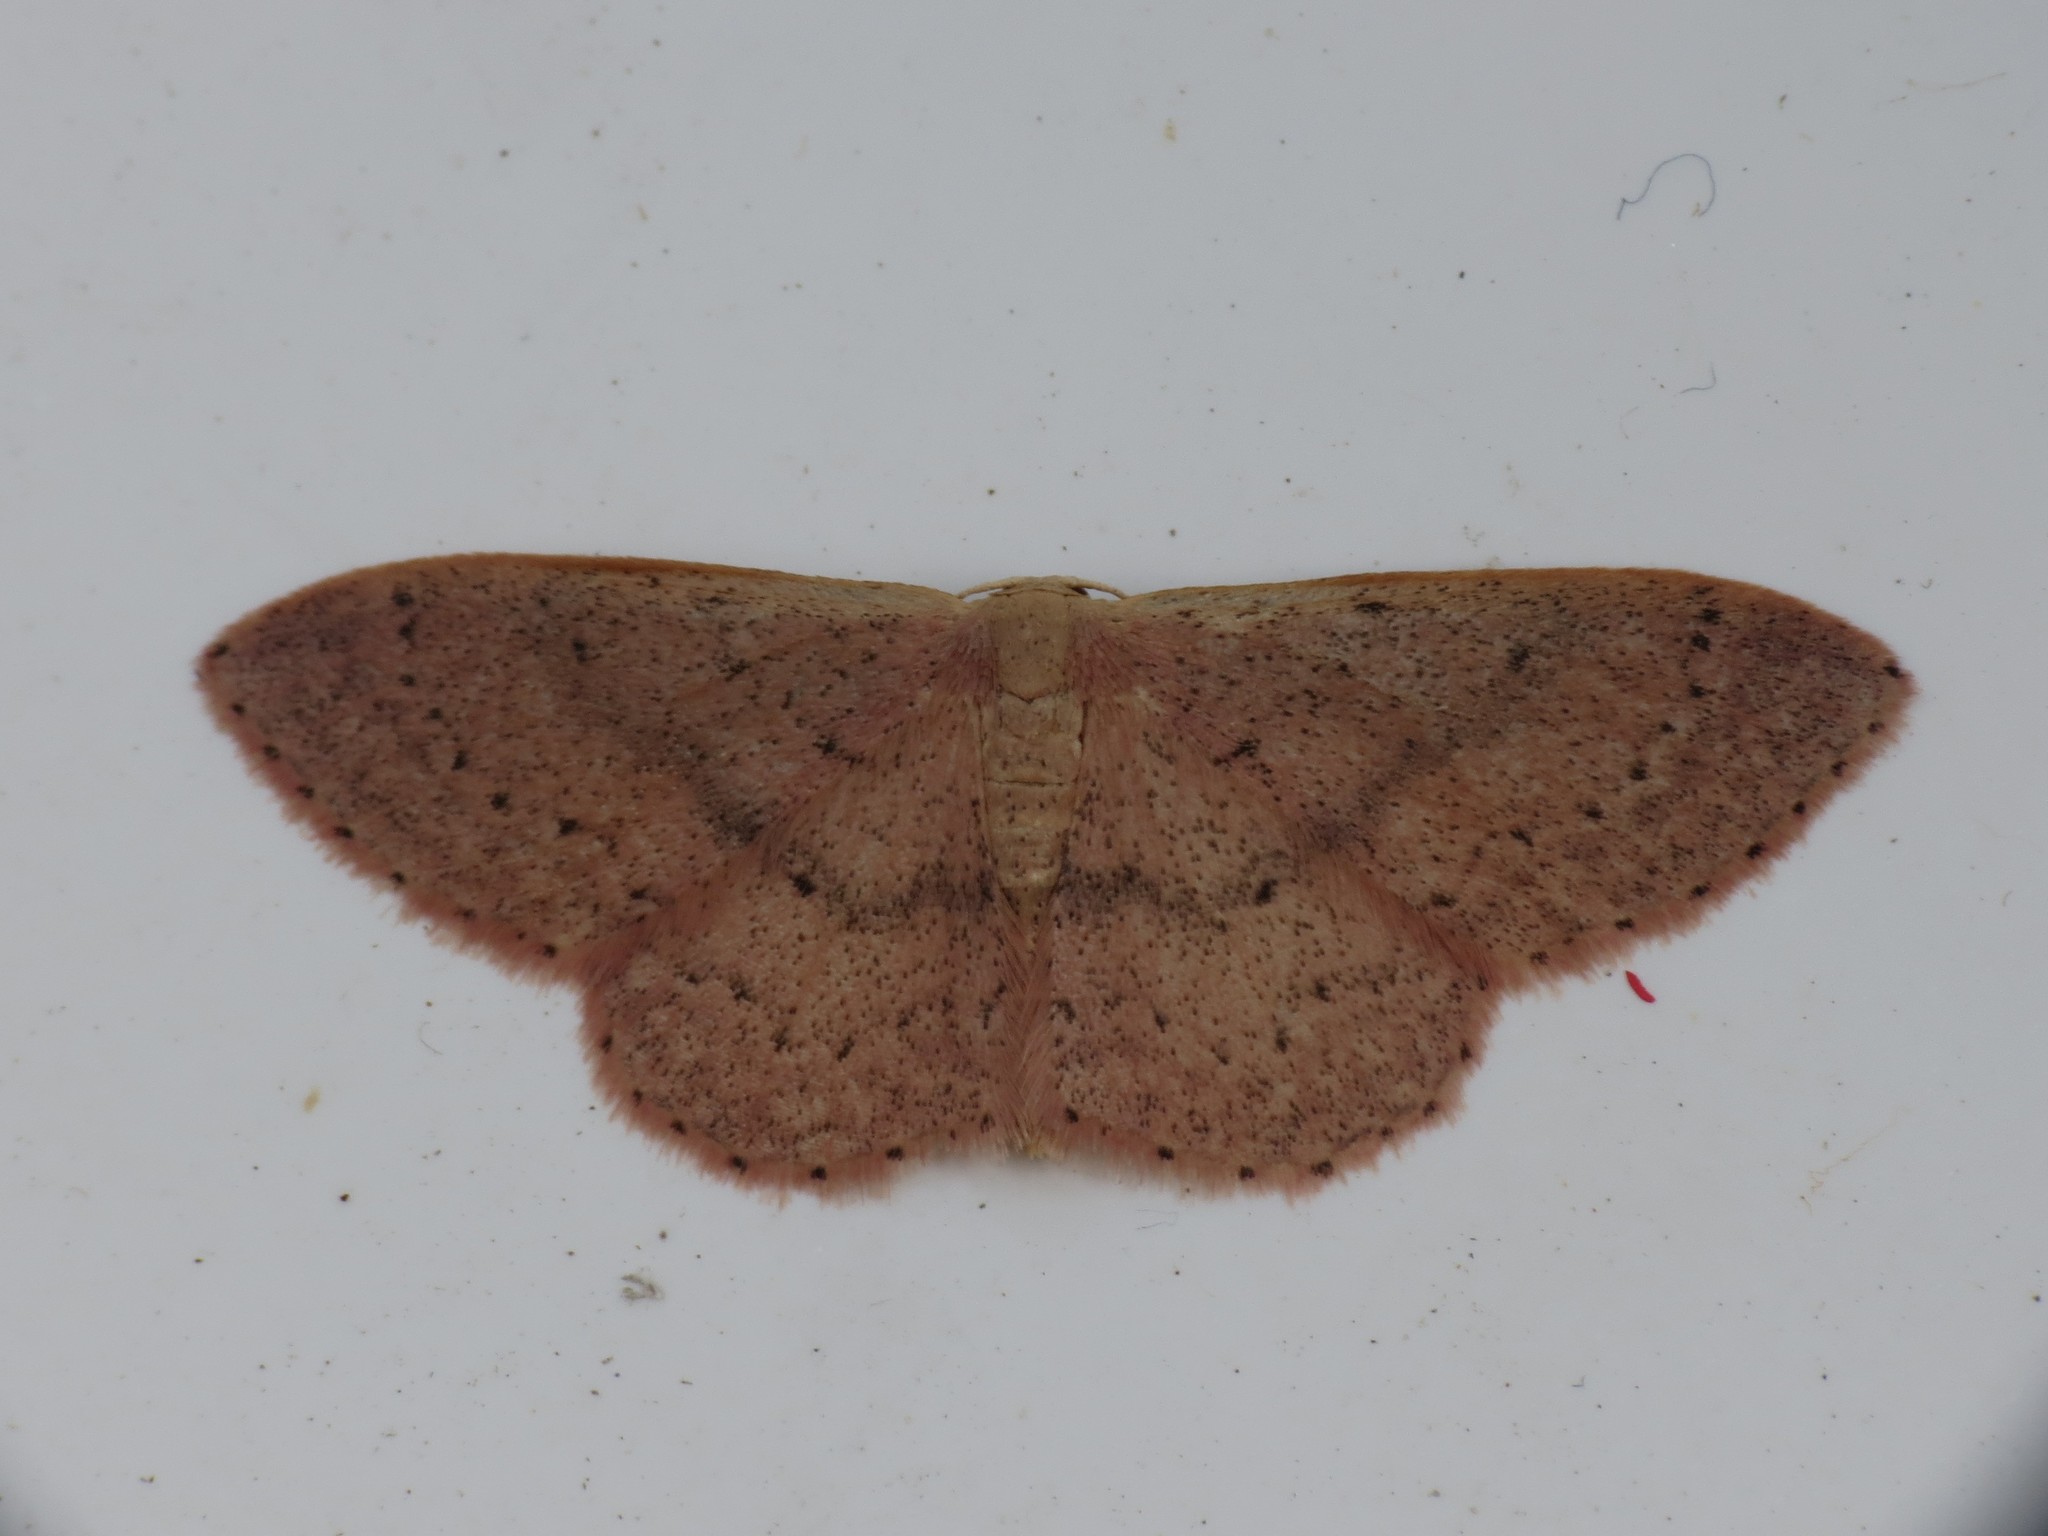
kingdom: Animalia
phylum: Arthropoda
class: Insecta
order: Lepidoptera
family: Geometridae
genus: Idaea
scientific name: Idaea eugeniata
